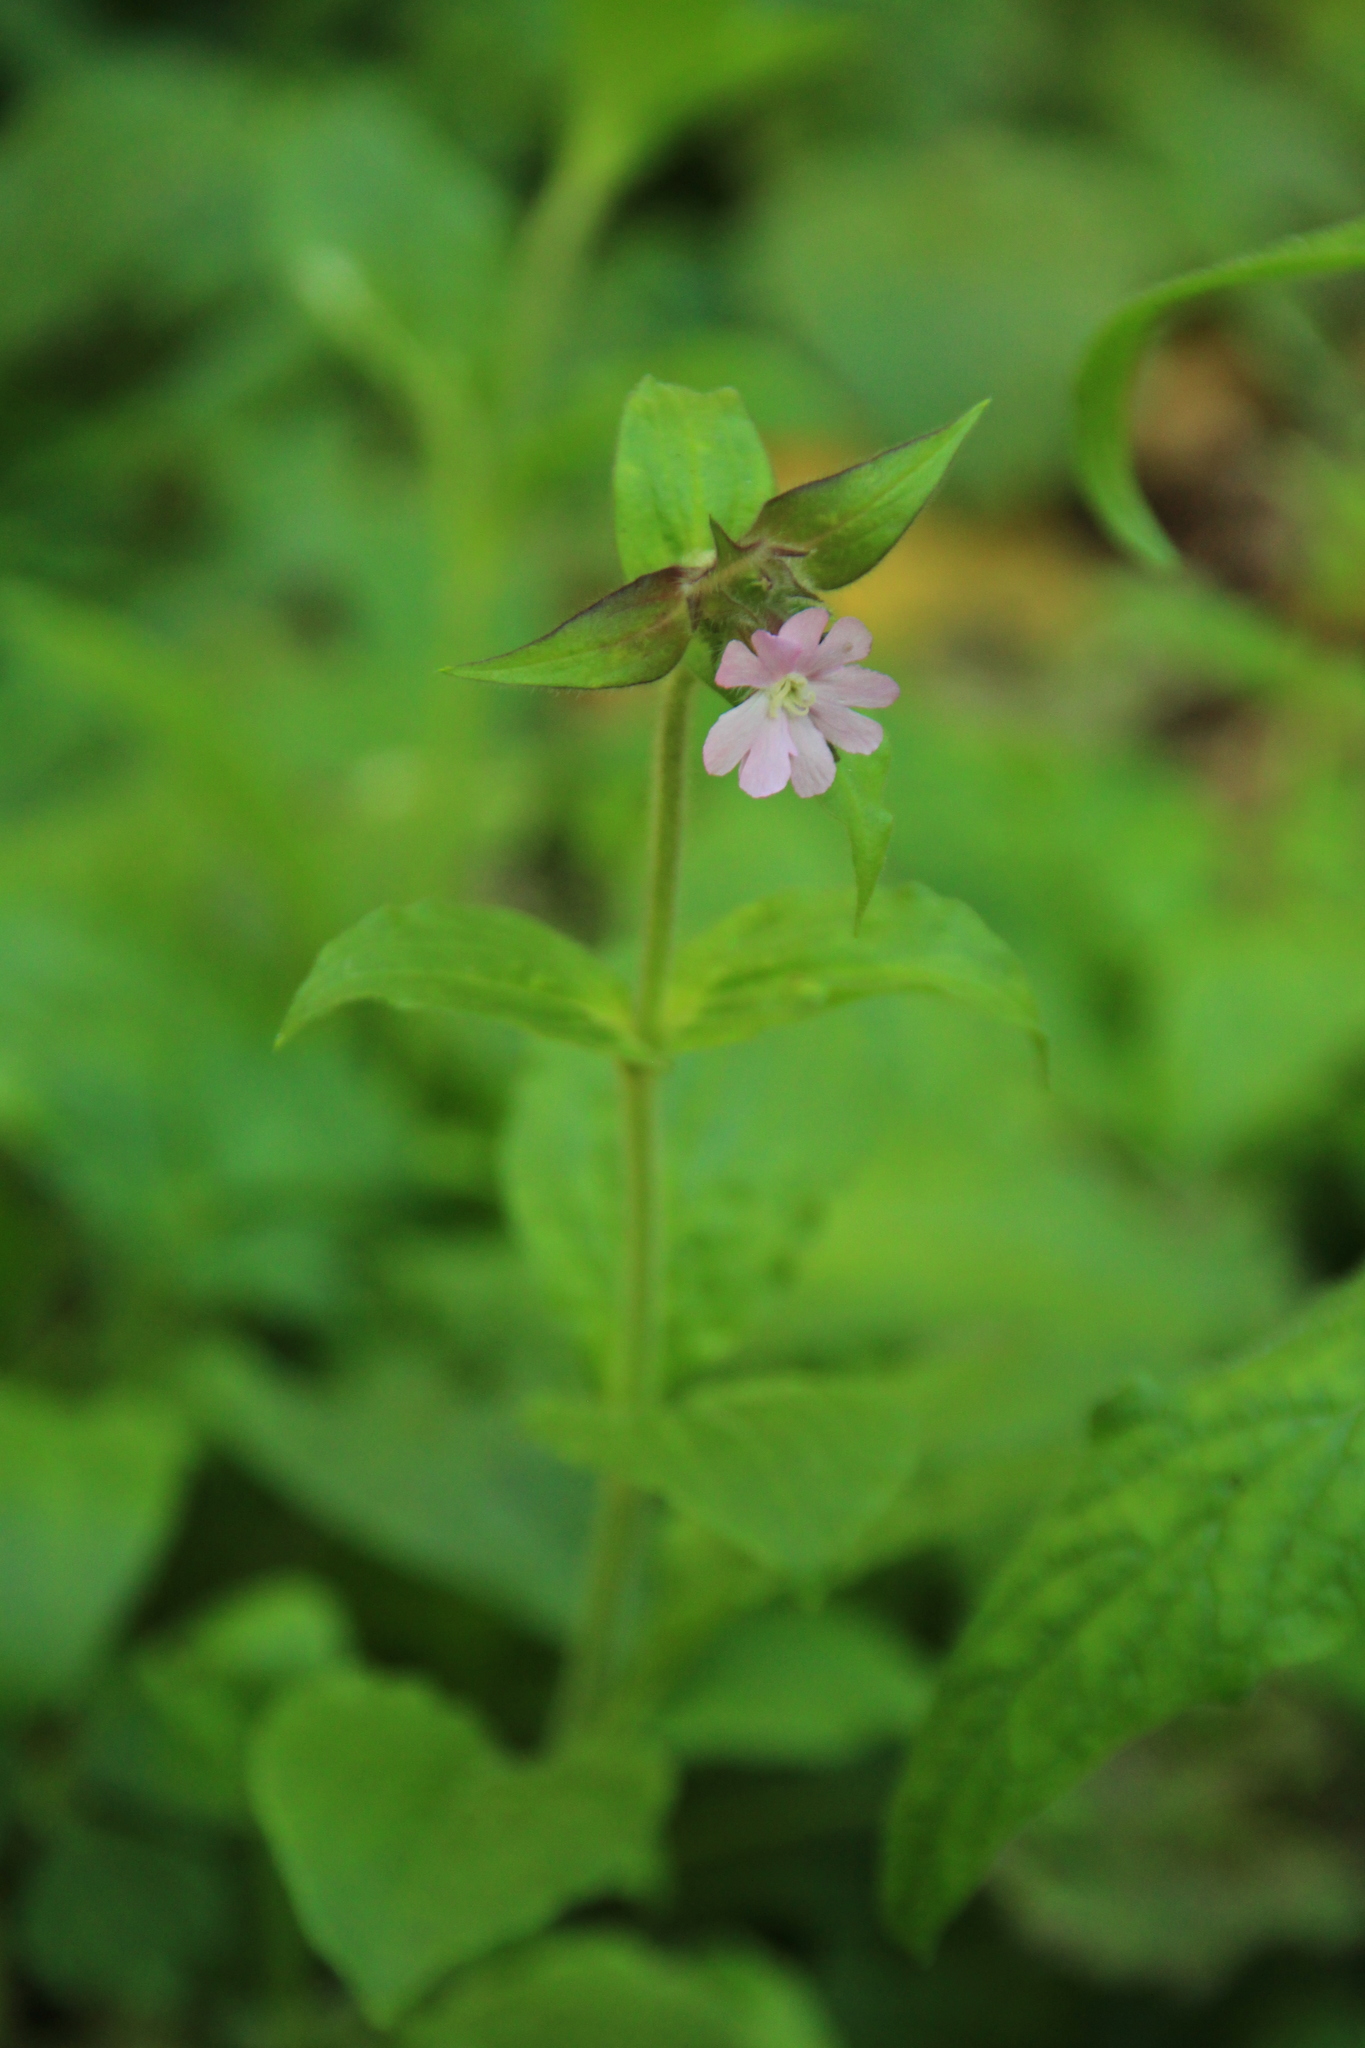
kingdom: Plantae
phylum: Tracheophyta
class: Magnoliopsida
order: Caryophyllales
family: Caryophyllaceae
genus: Silene
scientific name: Silene dioica
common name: Red campion
